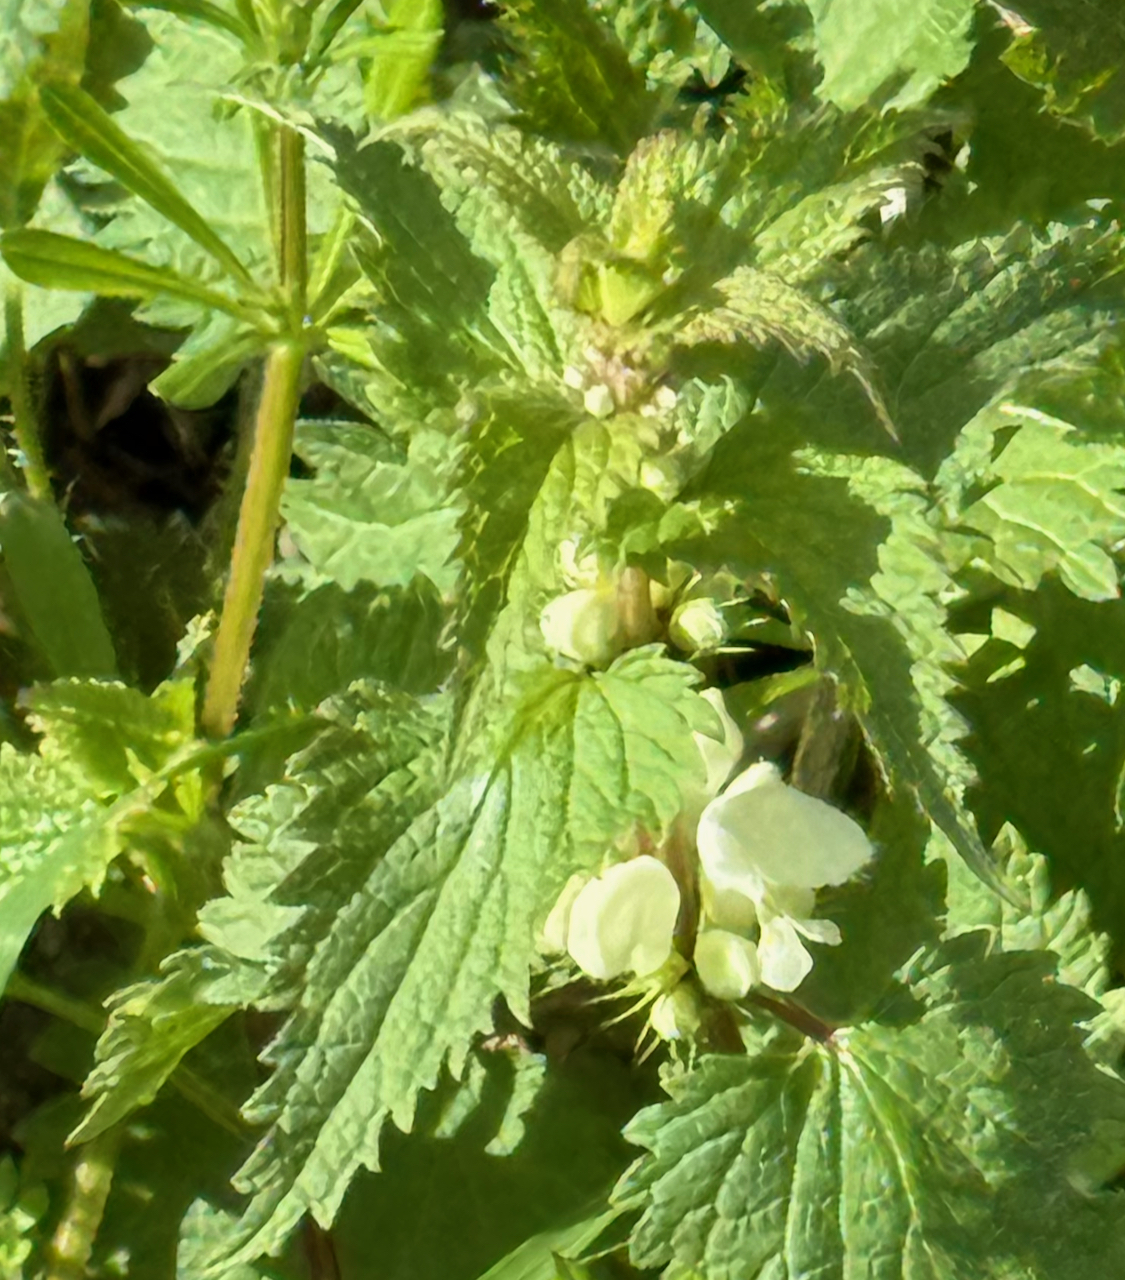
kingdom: Plantae
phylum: Tracheophyta
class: Magnoliopsida
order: Lamiales
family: Lamiaceae
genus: Lamium
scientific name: Lamium album
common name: White dead-nettle
